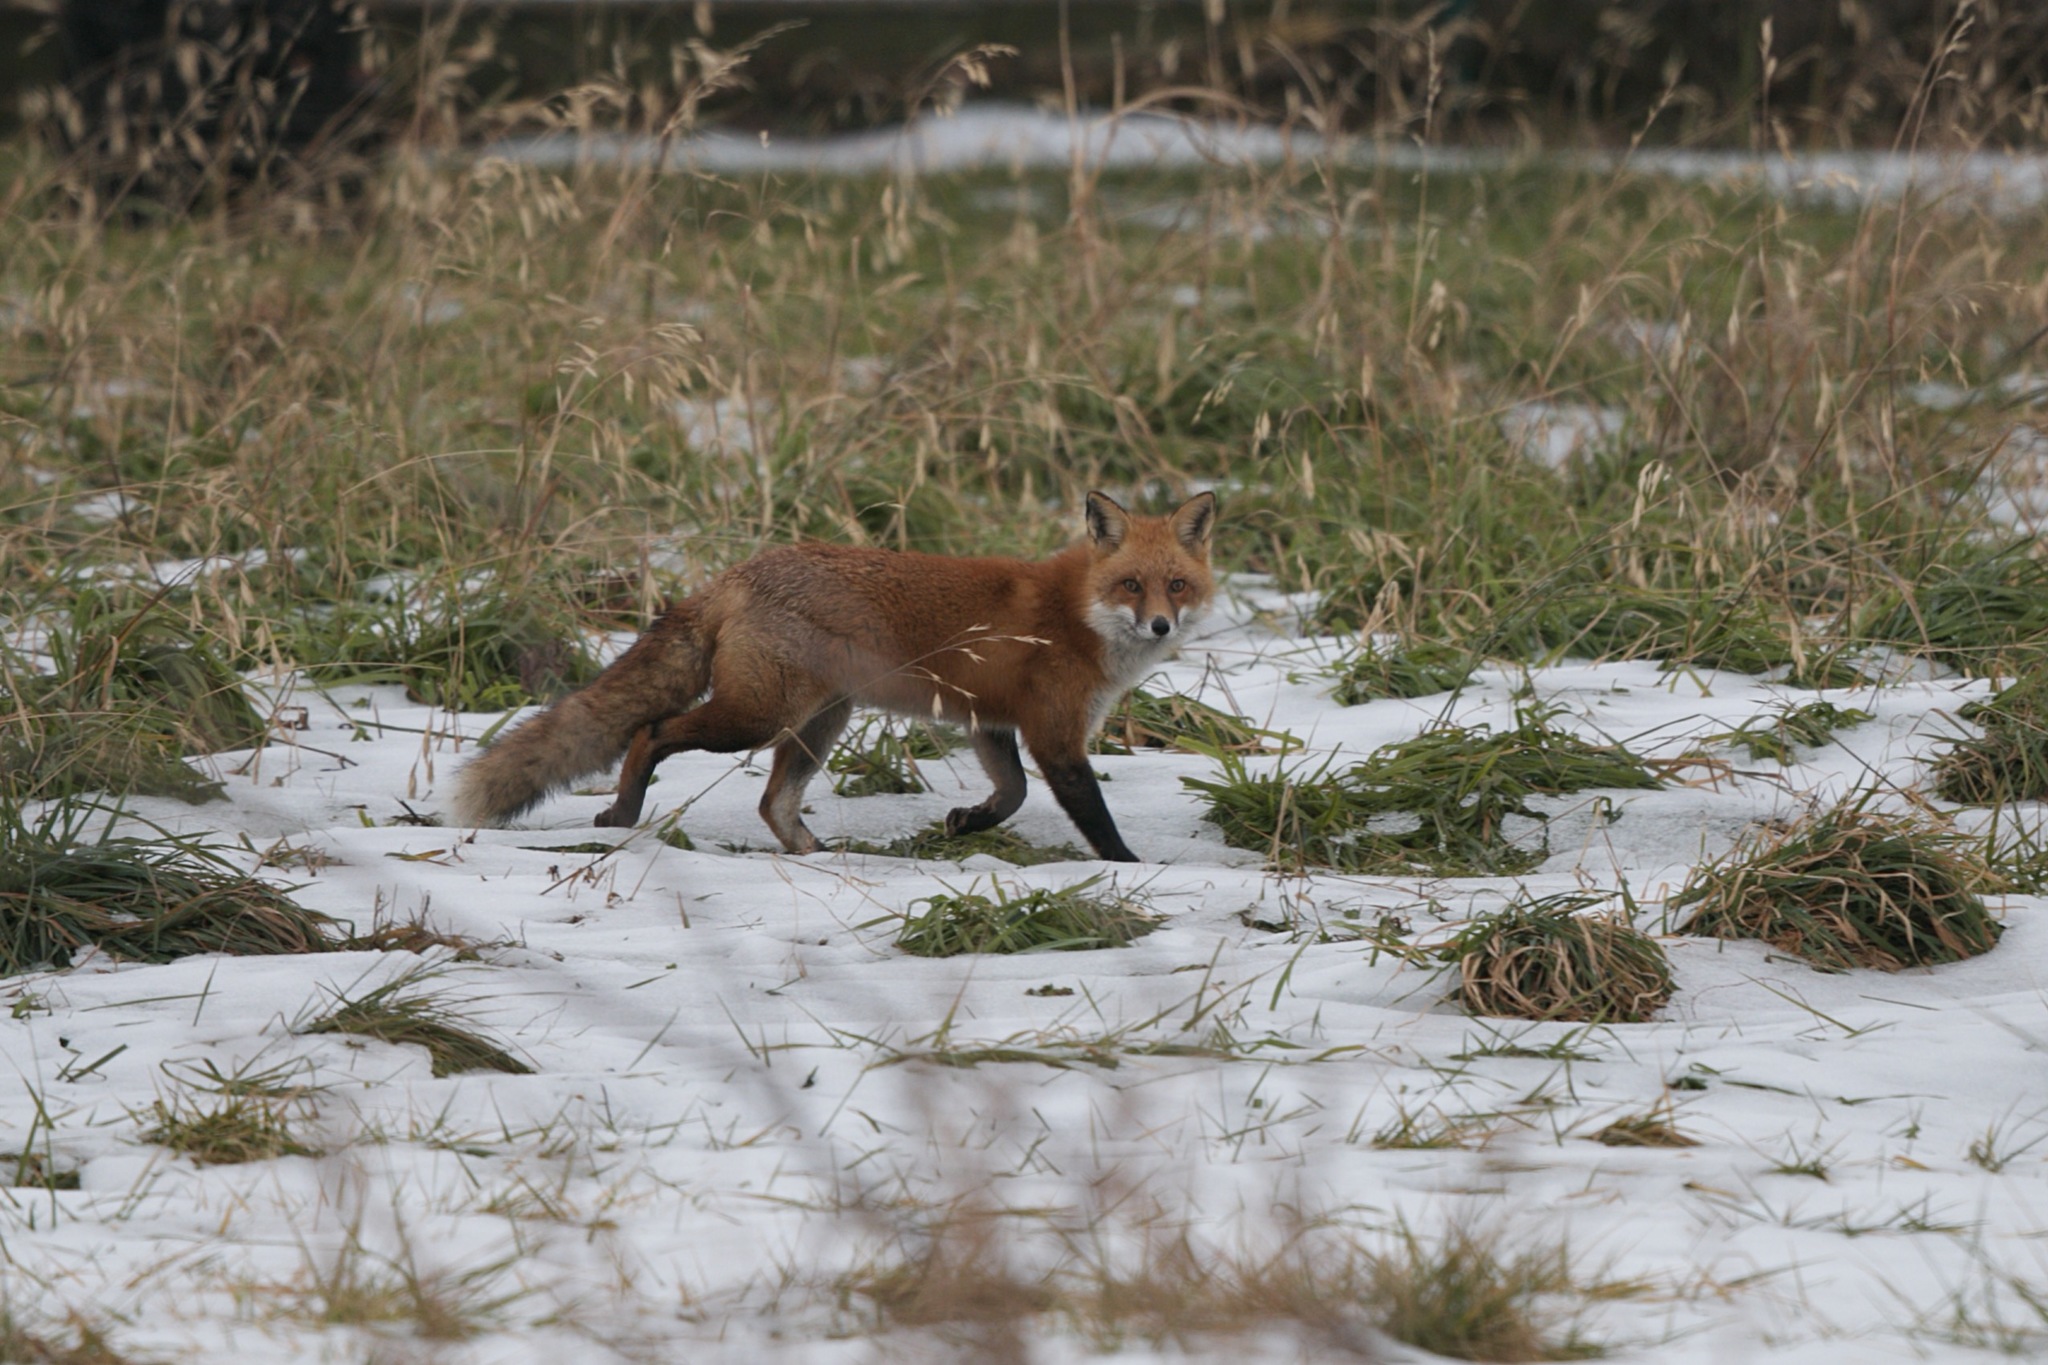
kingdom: Animalia
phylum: Chordata
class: Mammalia
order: Carnivora
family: Canidae
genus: Vulpes
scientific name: Vulpes vulpes
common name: Red fox
